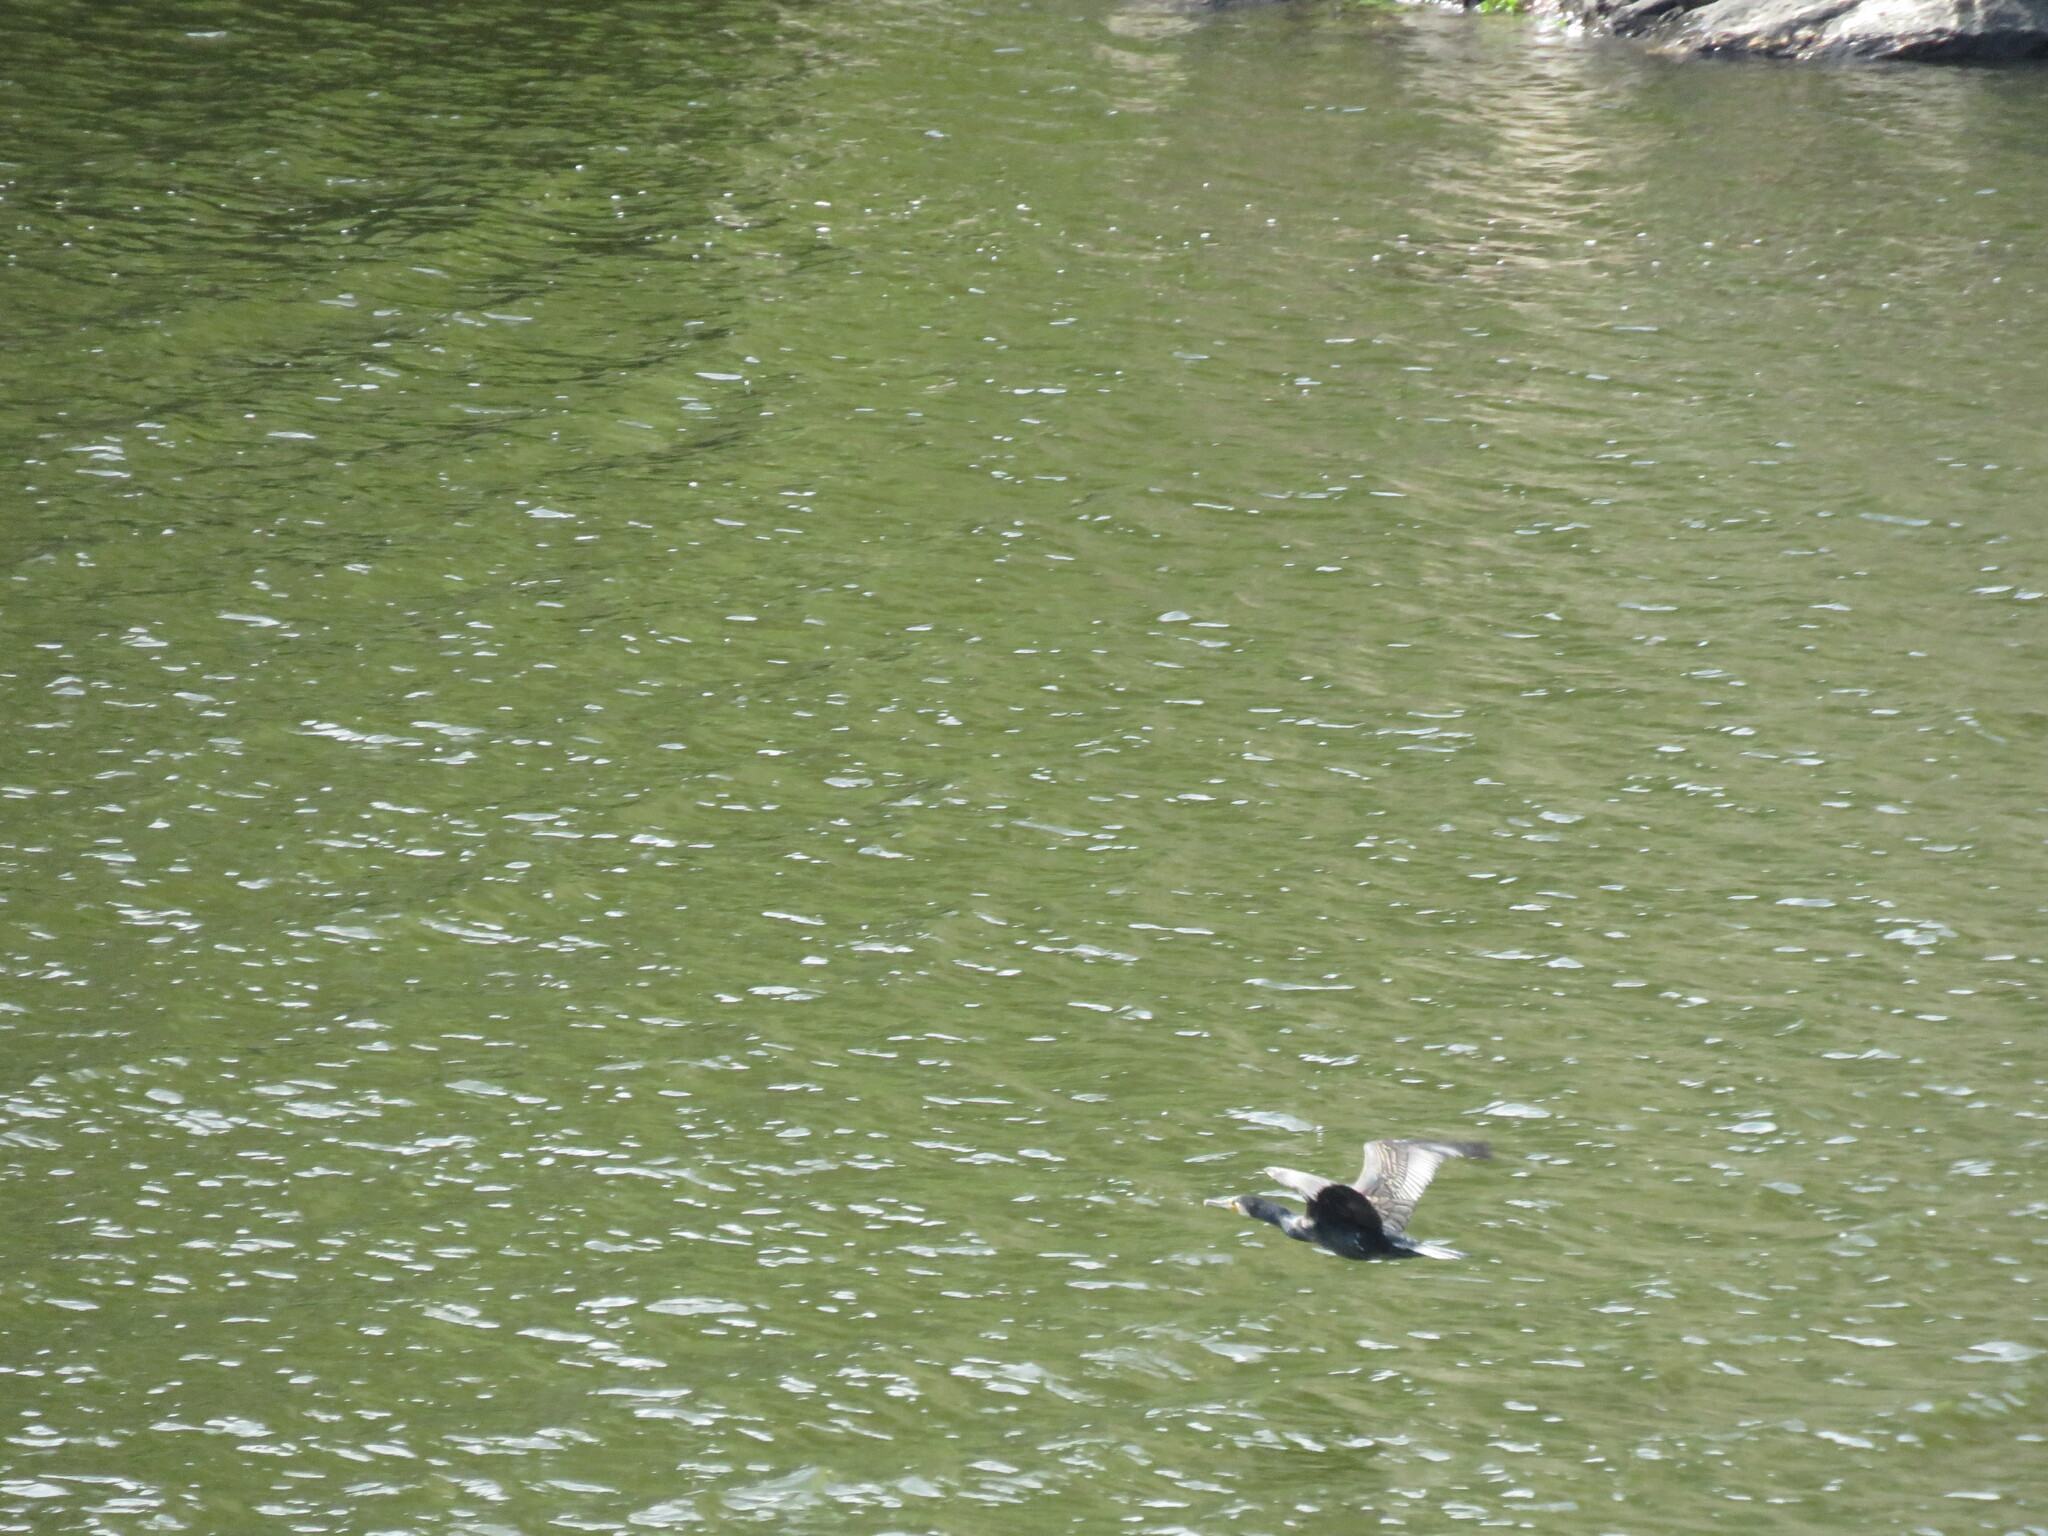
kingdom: Animalia
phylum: Chordata
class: Aves
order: Suliformes
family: Phalacrocoracidae
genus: Phalacrocorax
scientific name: Phalacrocorax carbo
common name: Great cormorant
